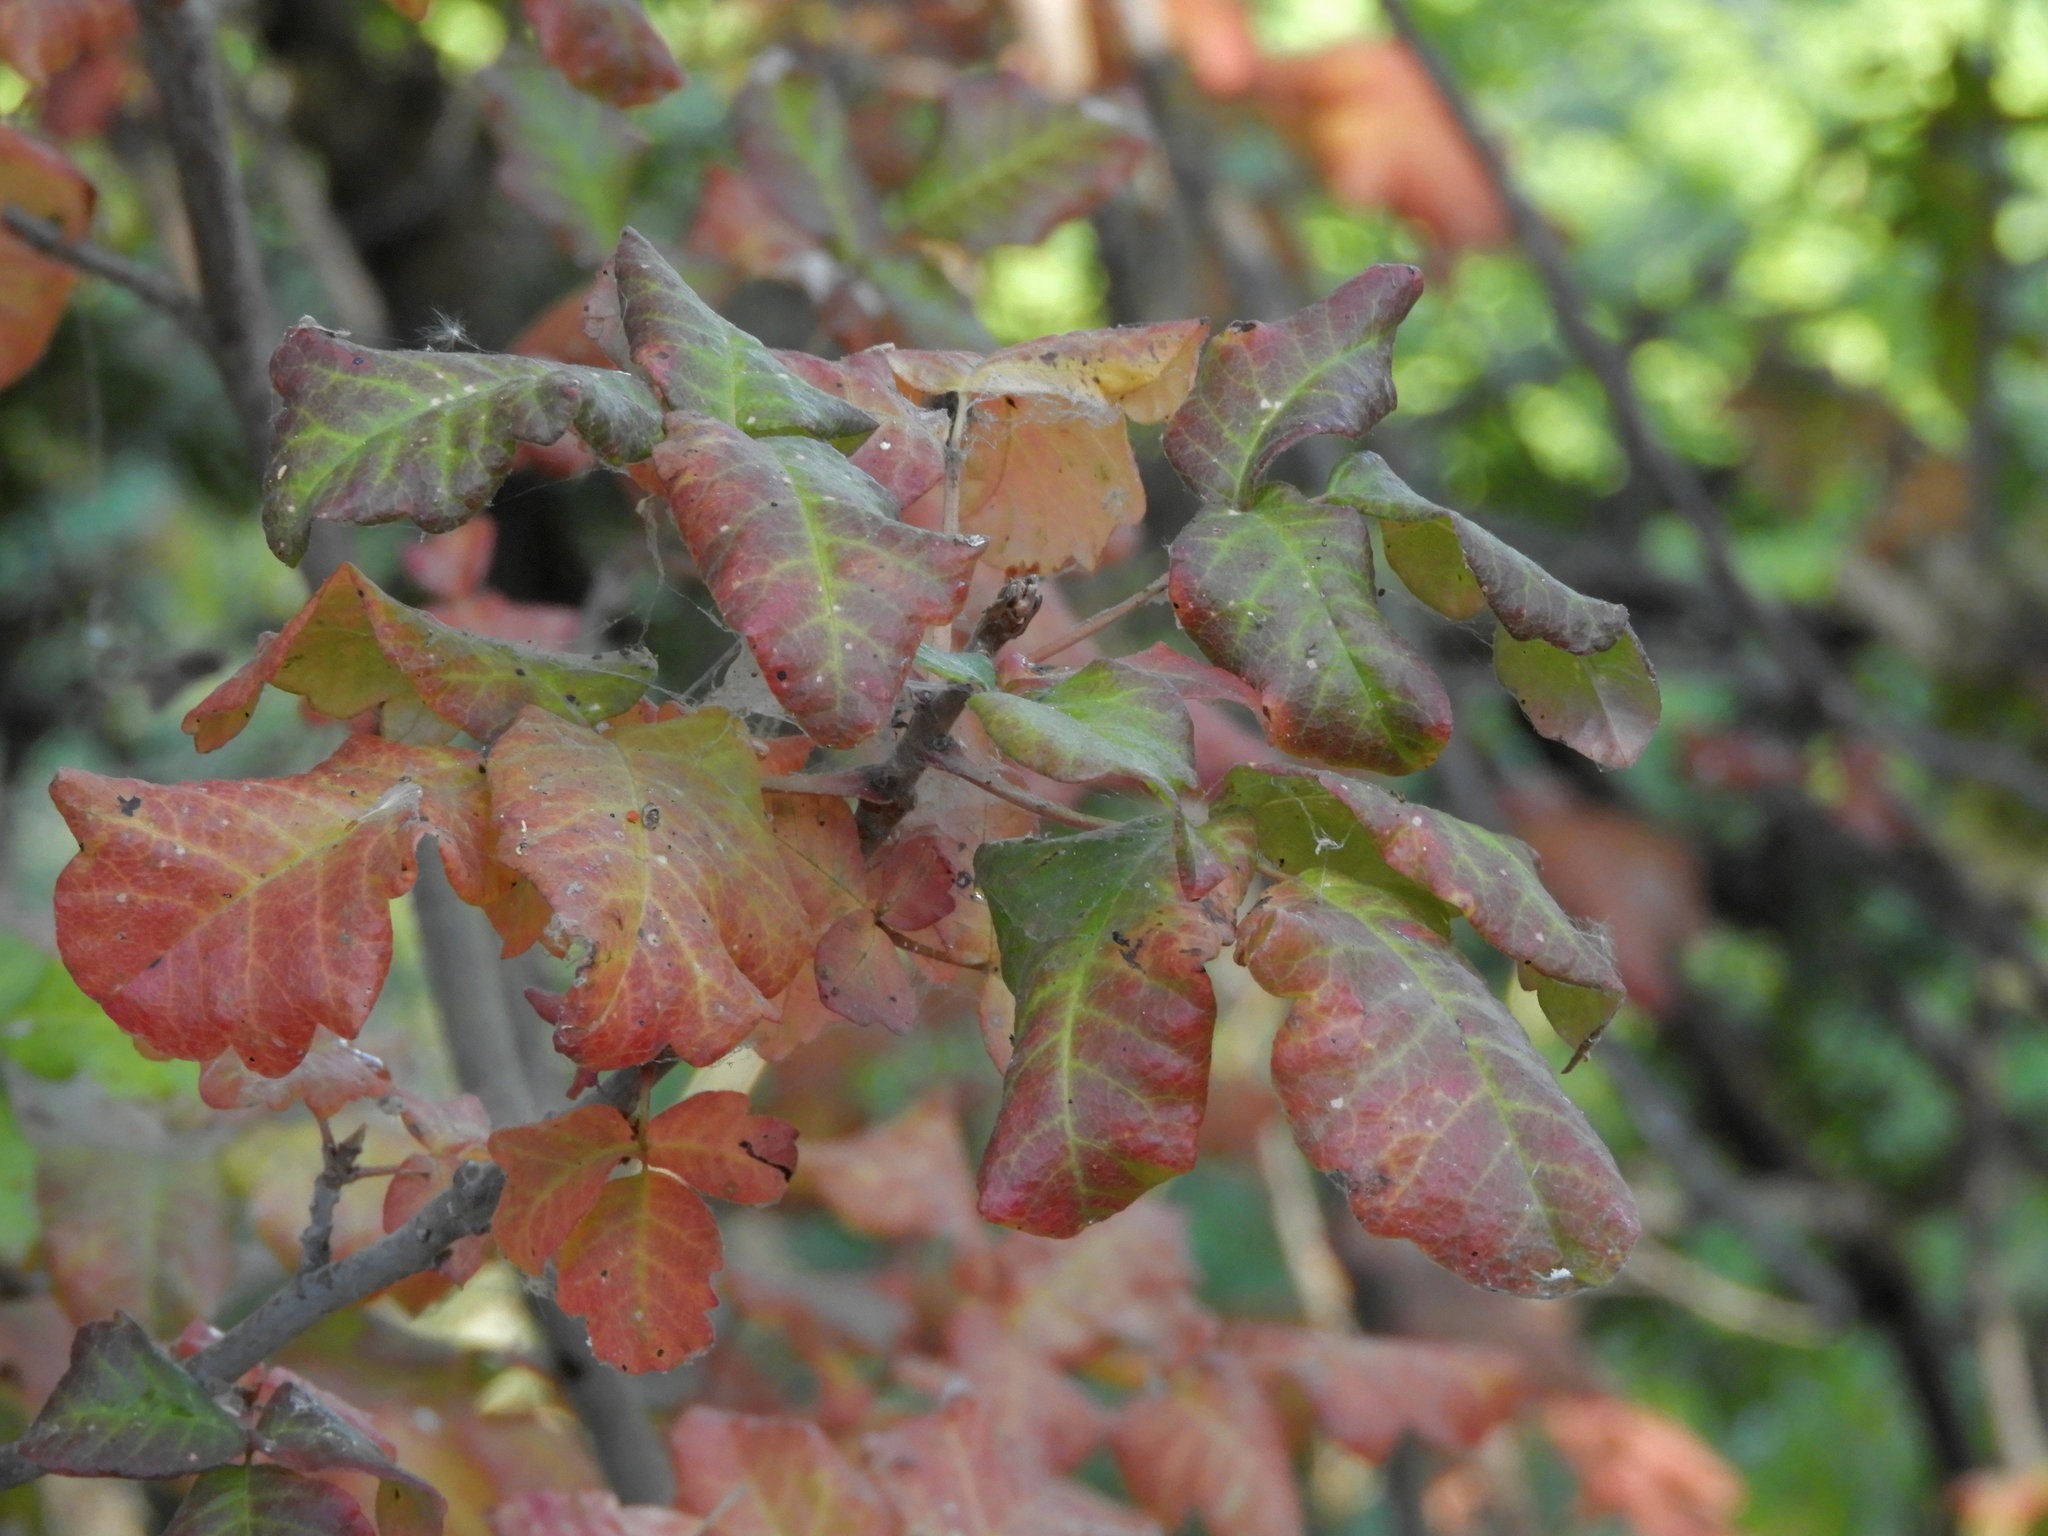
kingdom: Plantae
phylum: Tracheophyta
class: Magnoliopsida
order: Sapindales
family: Anacardiaceae
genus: Toxicodendron
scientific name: Toxicodendron diversilobum
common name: Pacific poison-oak
